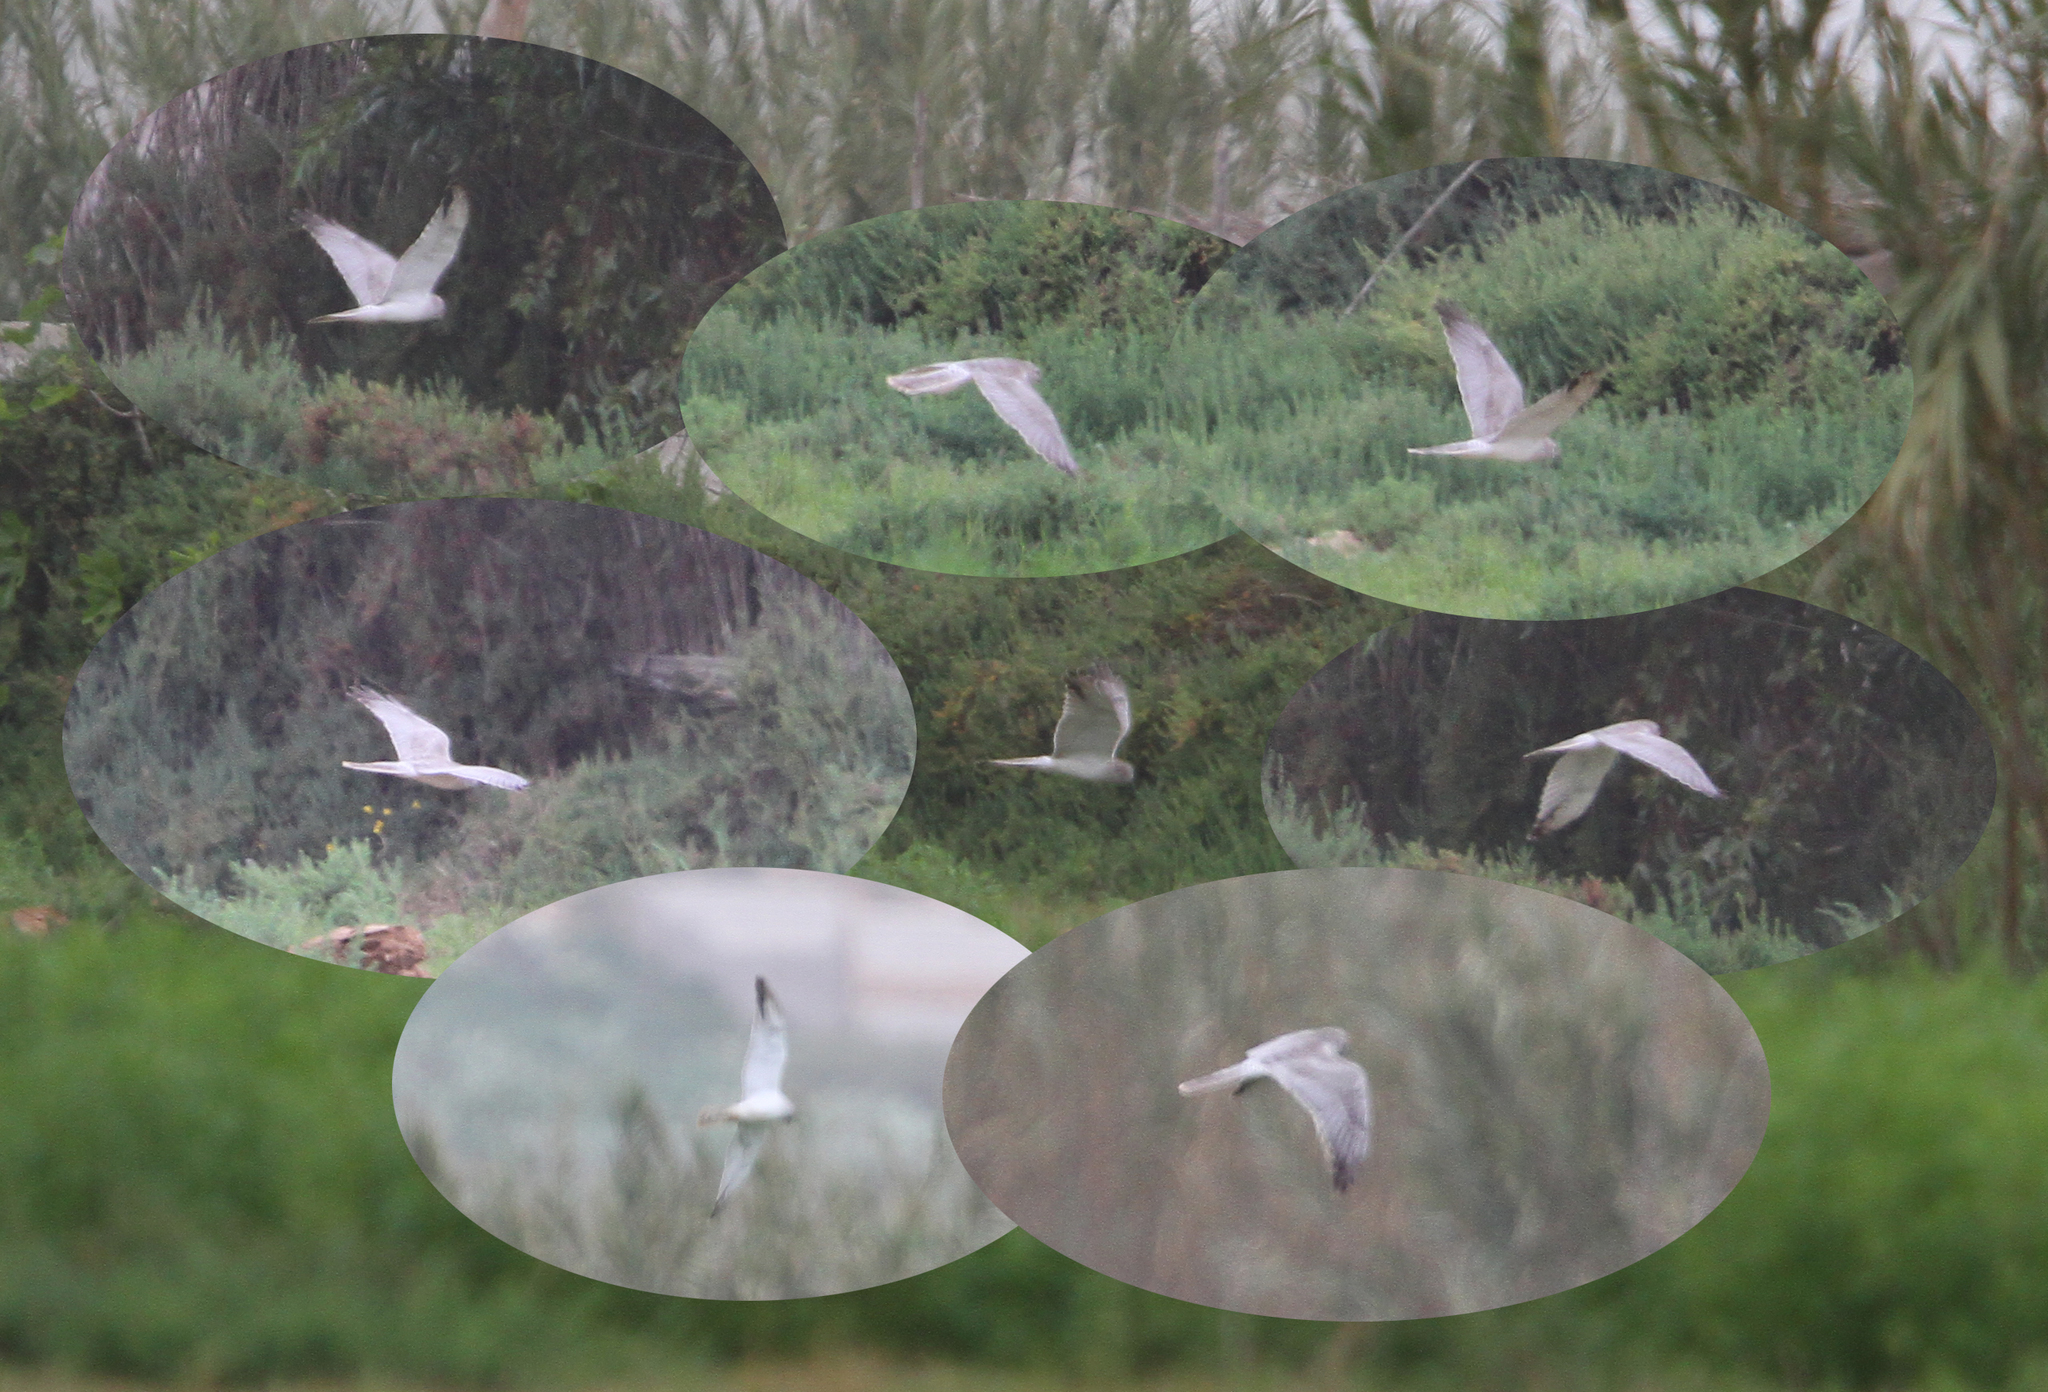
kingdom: Animalia
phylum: Chordata
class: Aves
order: Accipitriformes
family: Accipitridae
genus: Circus
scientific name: Circus macrourus
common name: Pallid harrier
